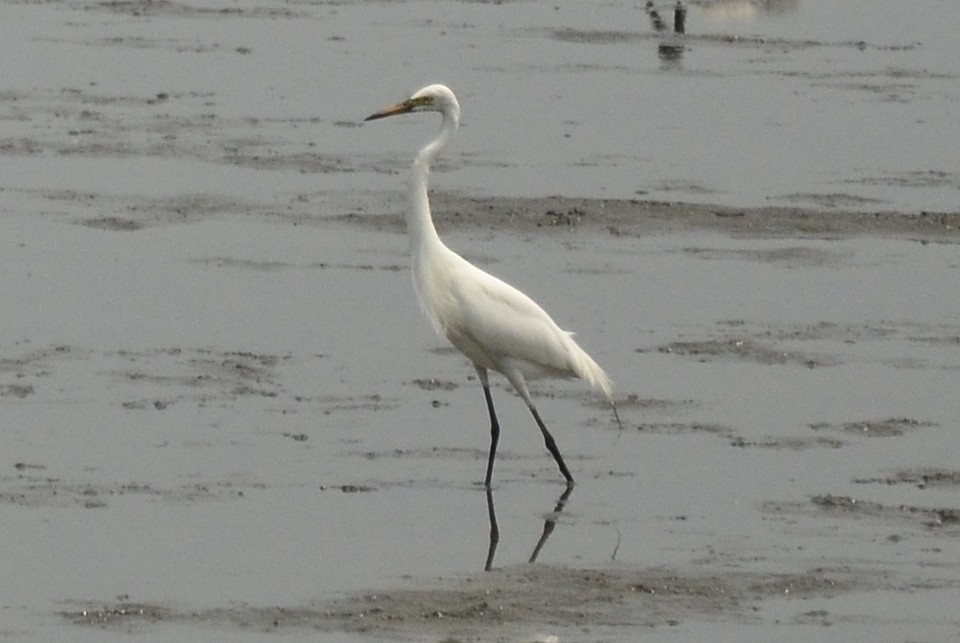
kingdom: Animalia
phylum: Chordata
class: Aves
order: Pelecaniformes
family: Ardeidae
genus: Ardea
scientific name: Ardea alba
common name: Great egret
